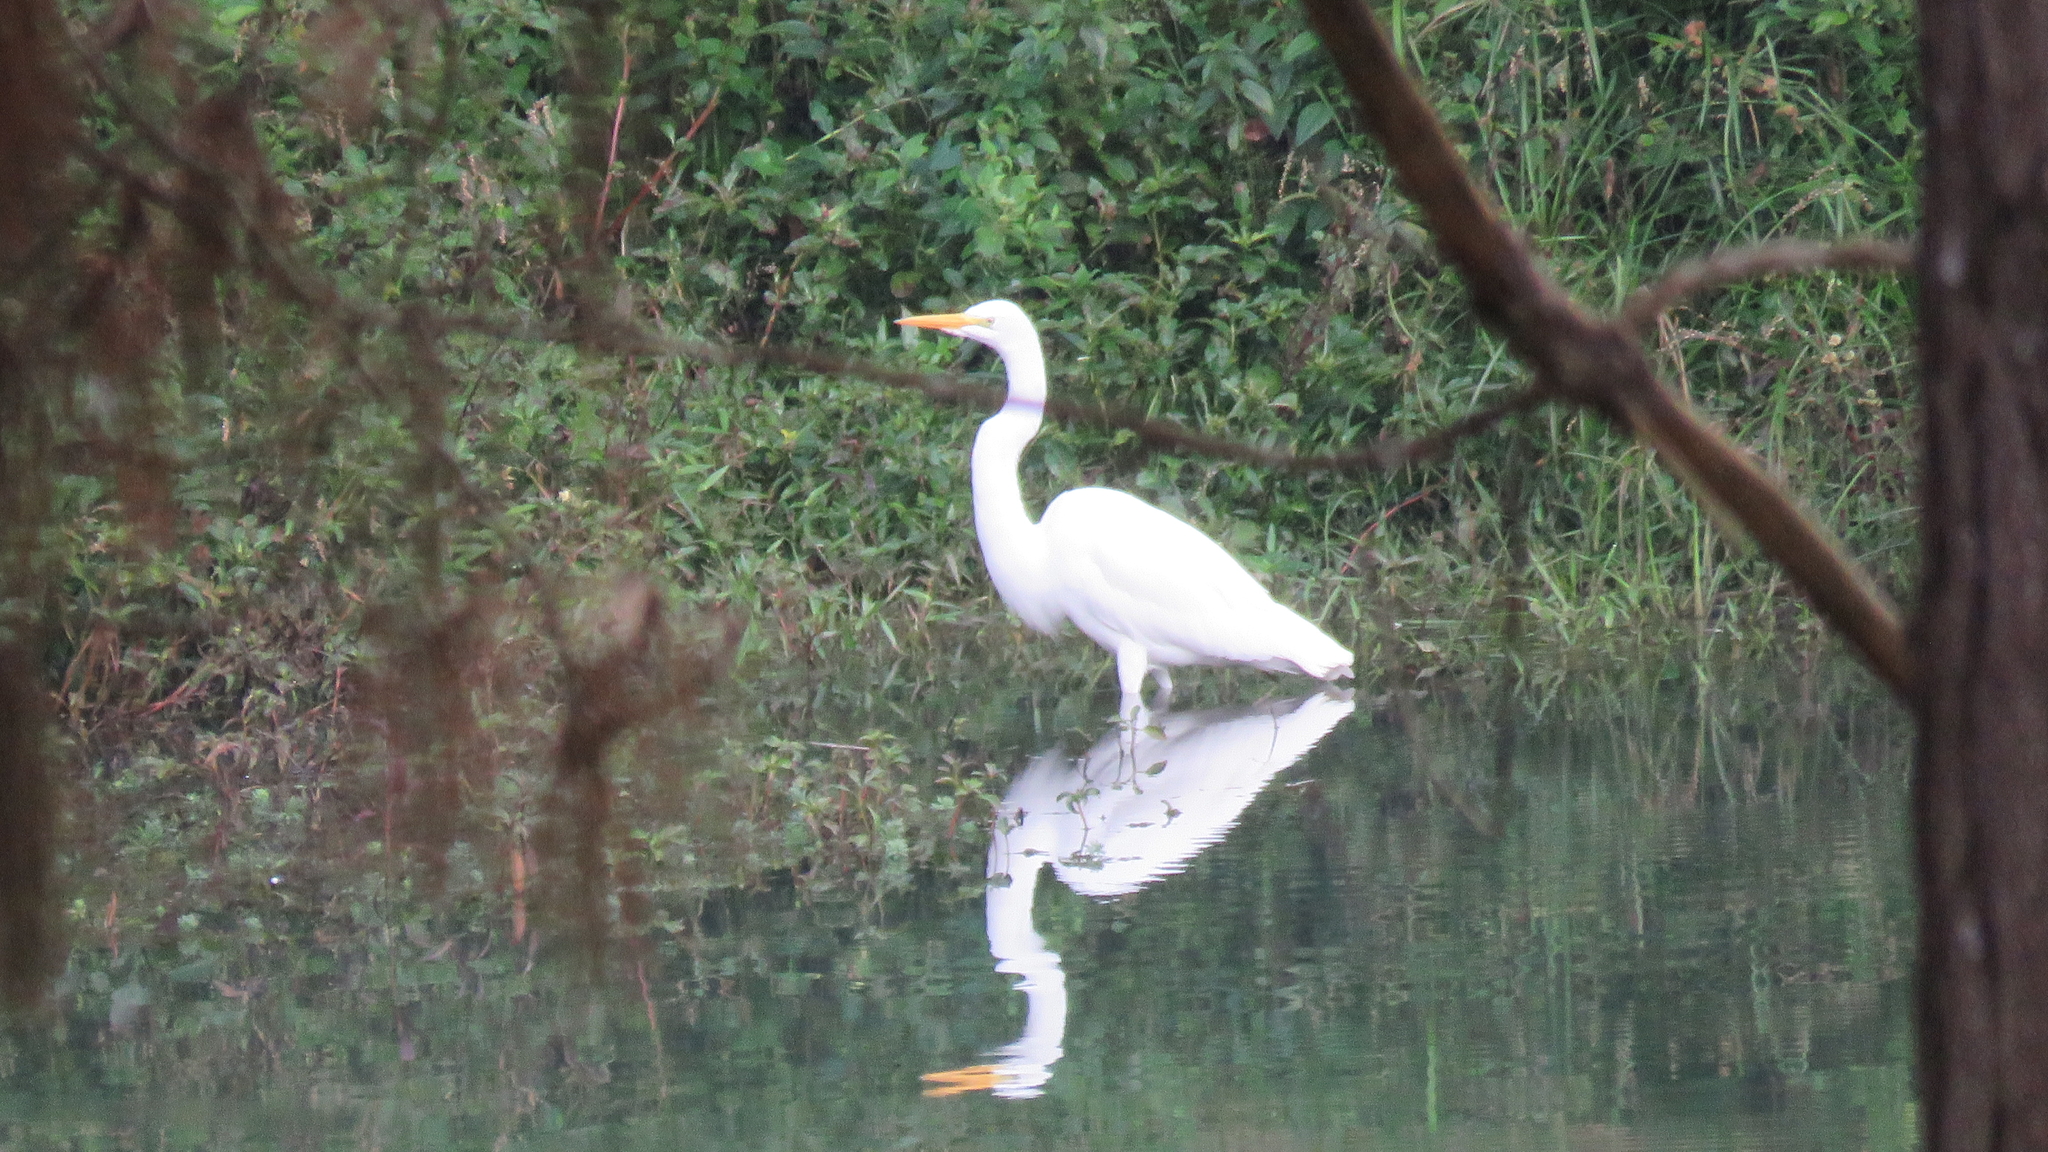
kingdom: Animalia
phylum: Chordata
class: Aves
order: Pelecaniformes
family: Ardeidae
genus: Ardea
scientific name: Ardea alba
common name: Great egret
